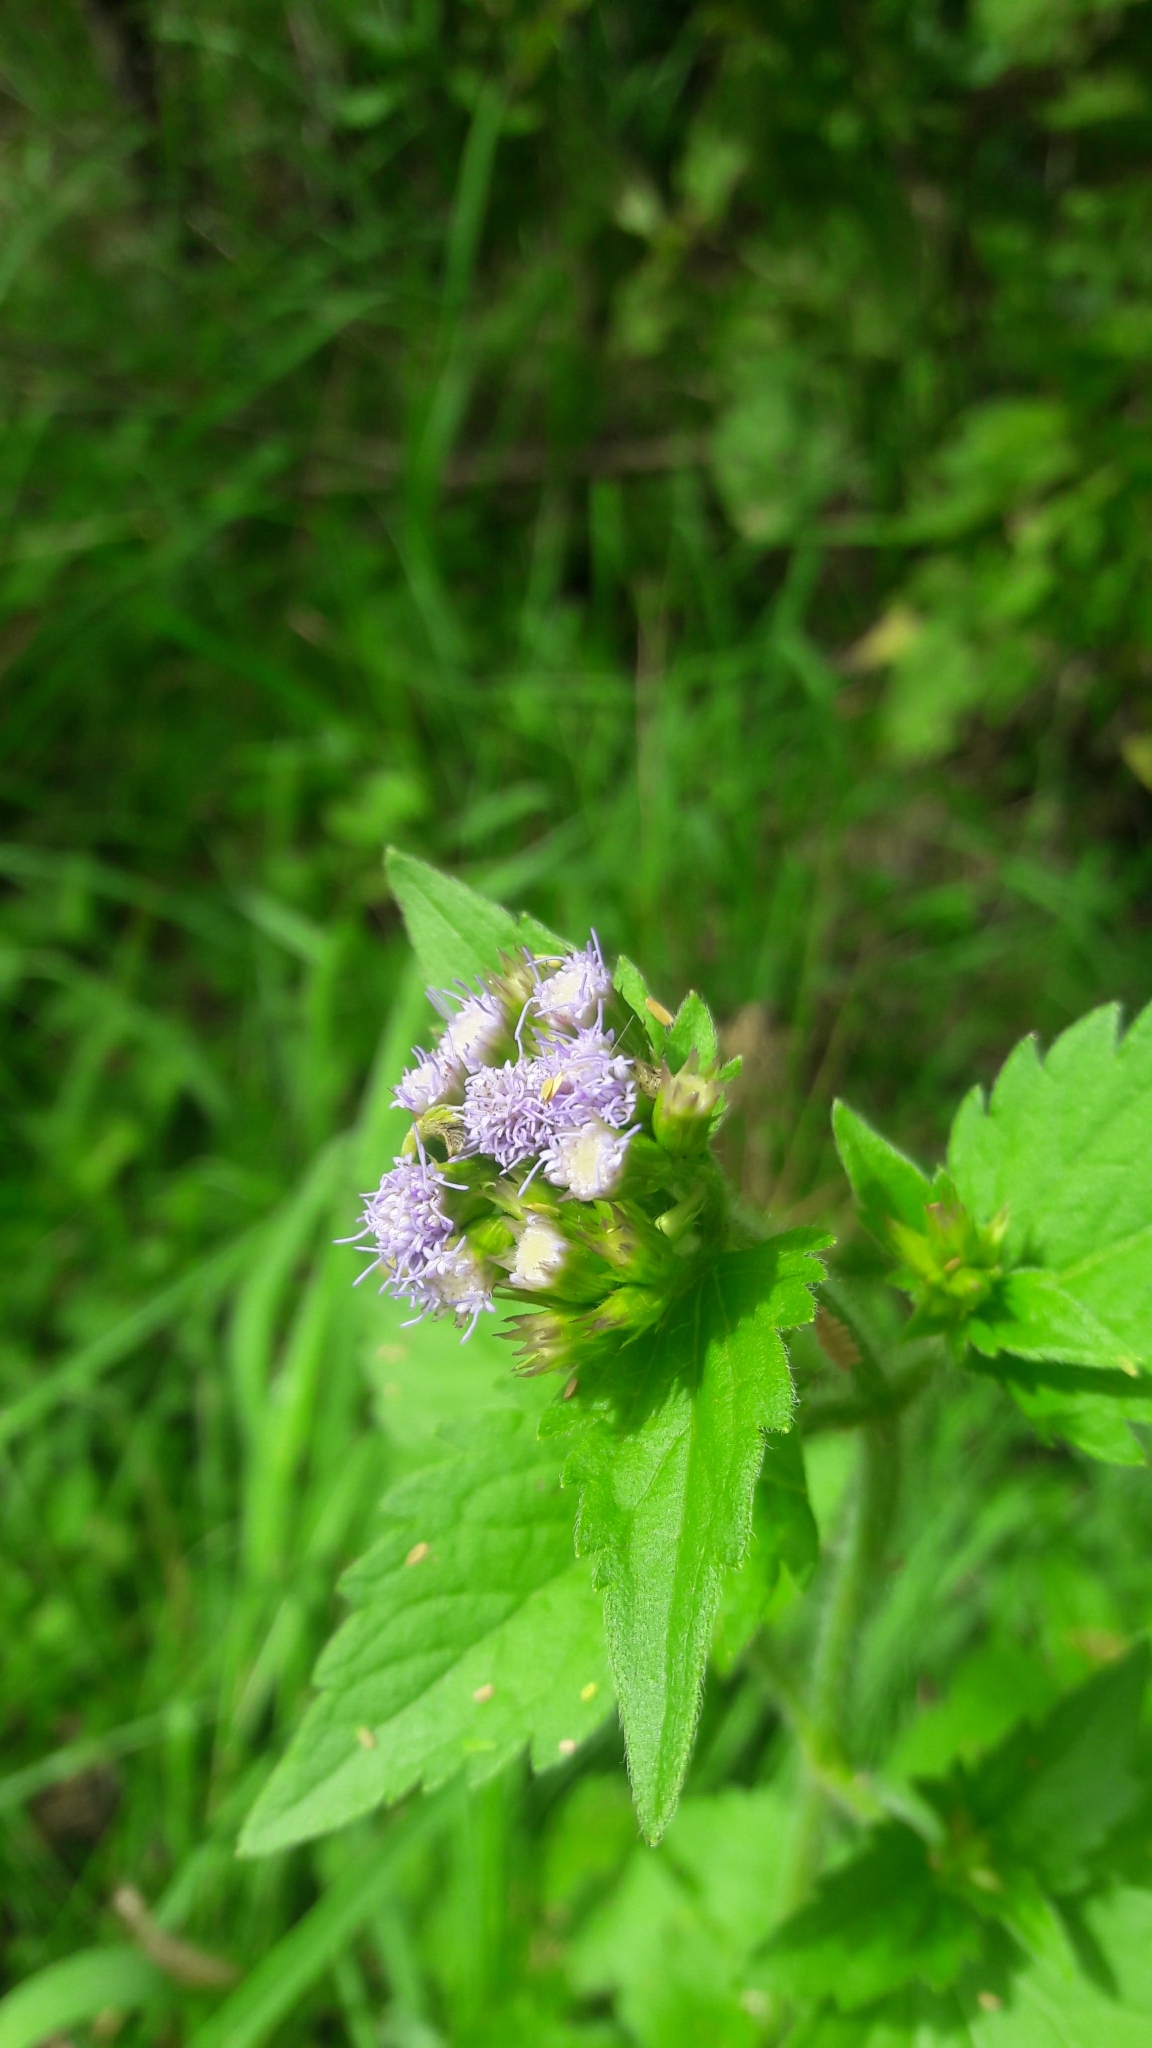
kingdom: Plantae
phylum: Tracheophyta
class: Magnoliopsida
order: Asterales
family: Asteraceae
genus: Praxelis
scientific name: Praxelis clematidea
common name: Praxelis
